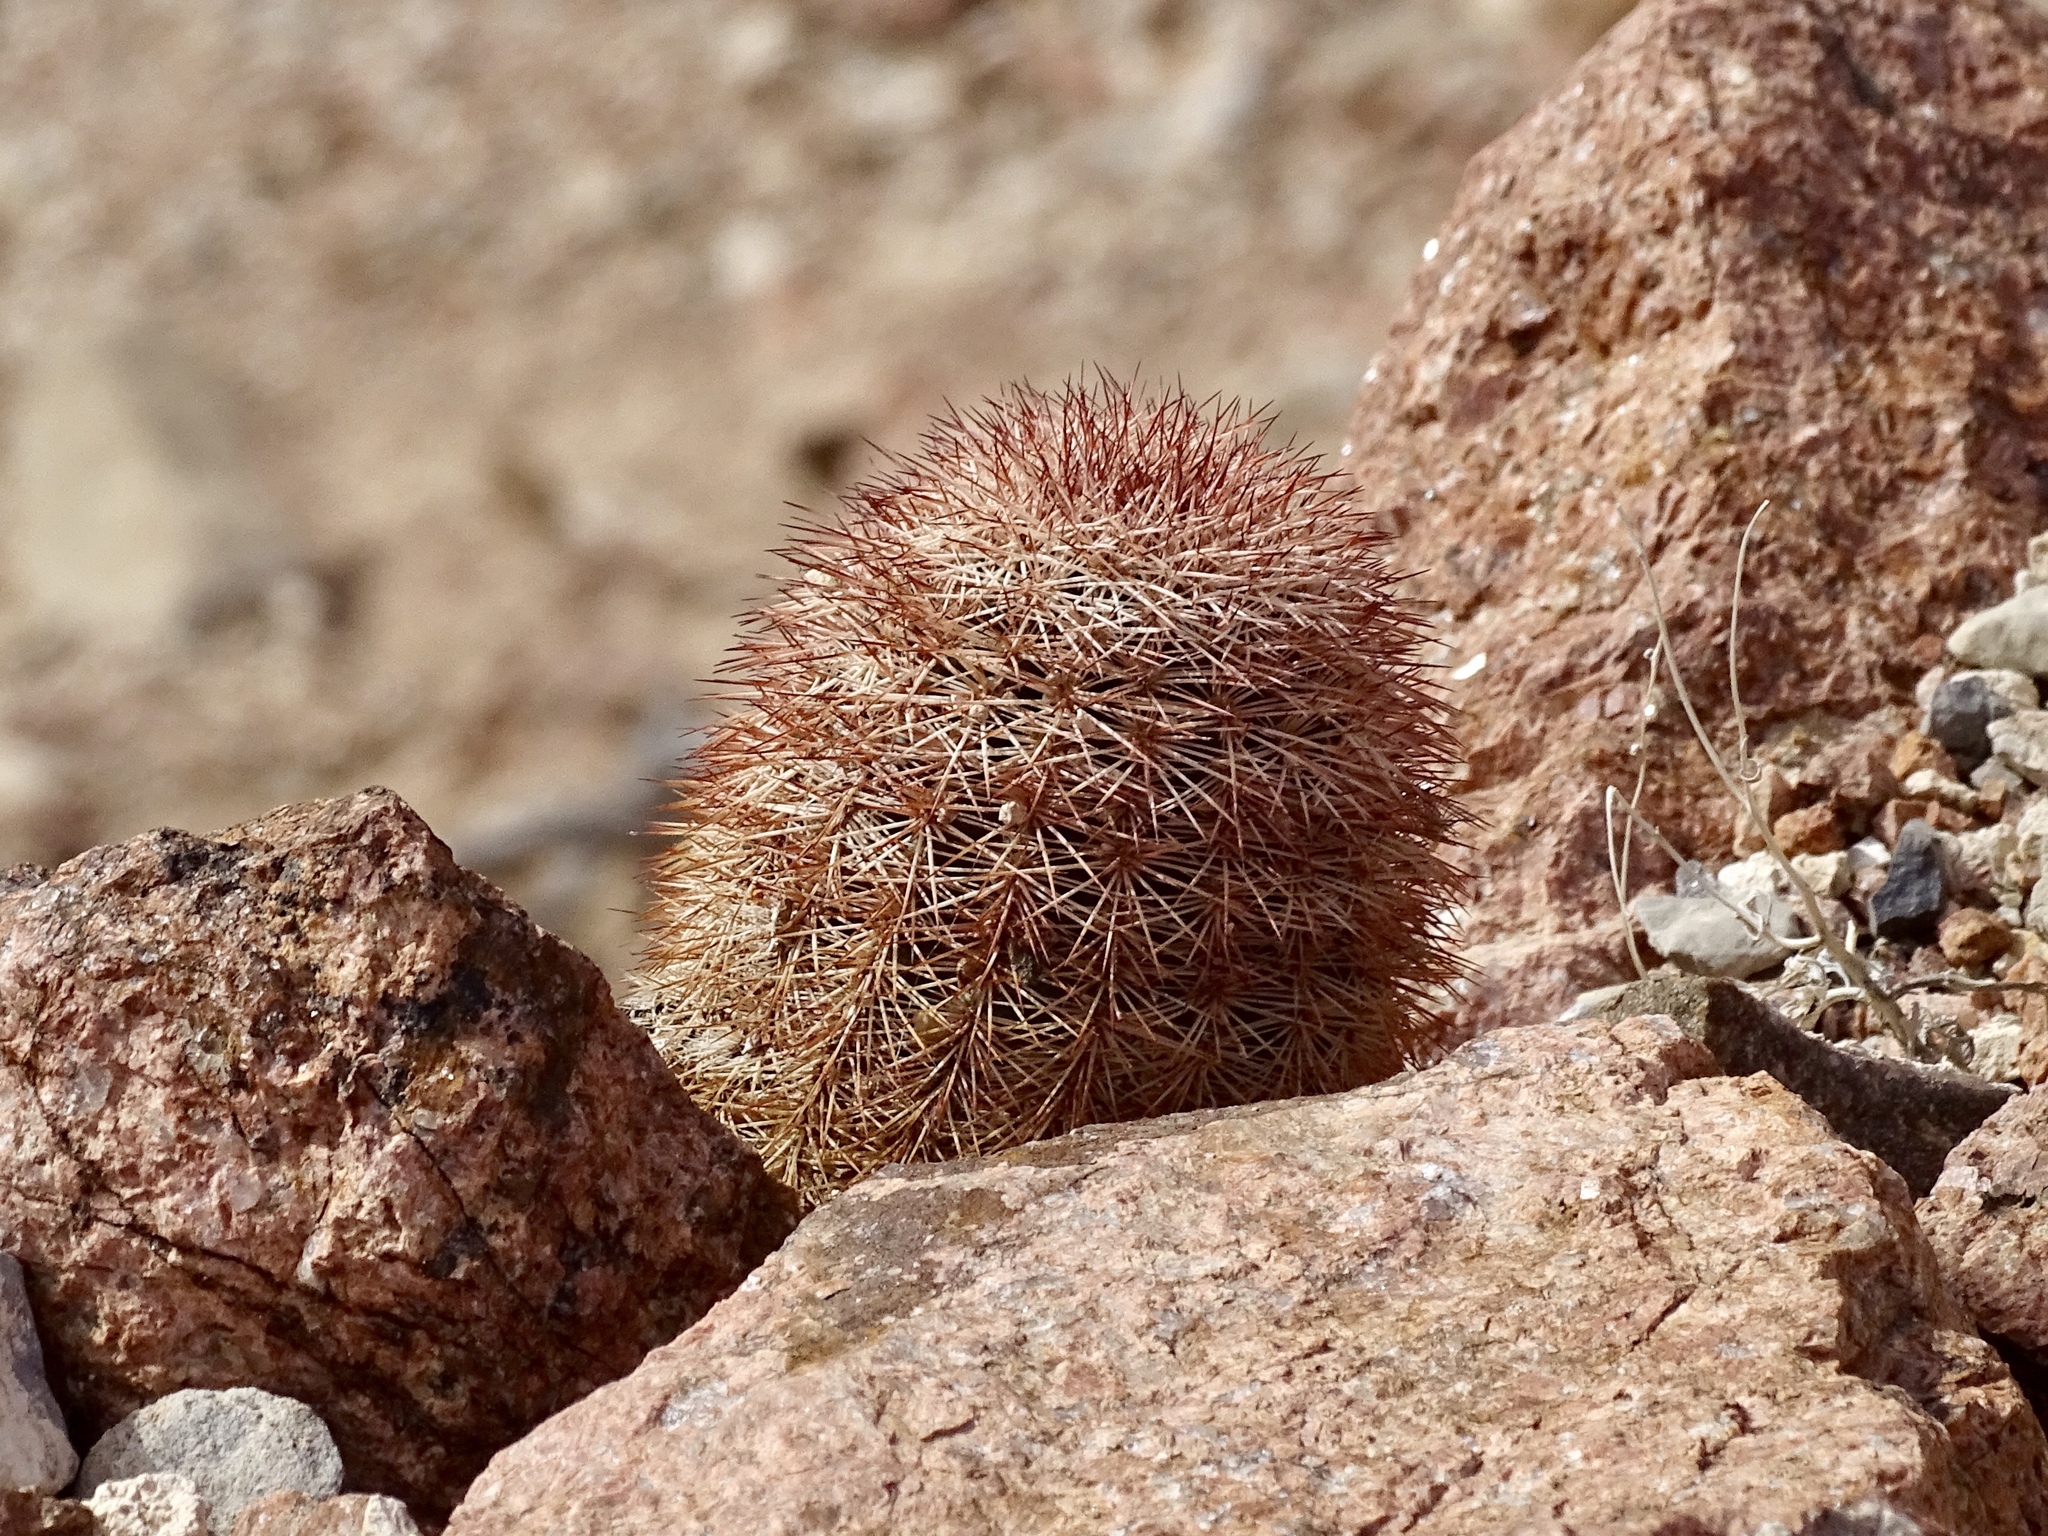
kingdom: Plantae
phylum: Tracheophyta
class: Magnoliopsida
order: Caryophyllales
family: Cactaceae
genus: Echinocereus
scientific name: Echinocereus dasyacanthus
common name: Spiny hedgehog cactus
